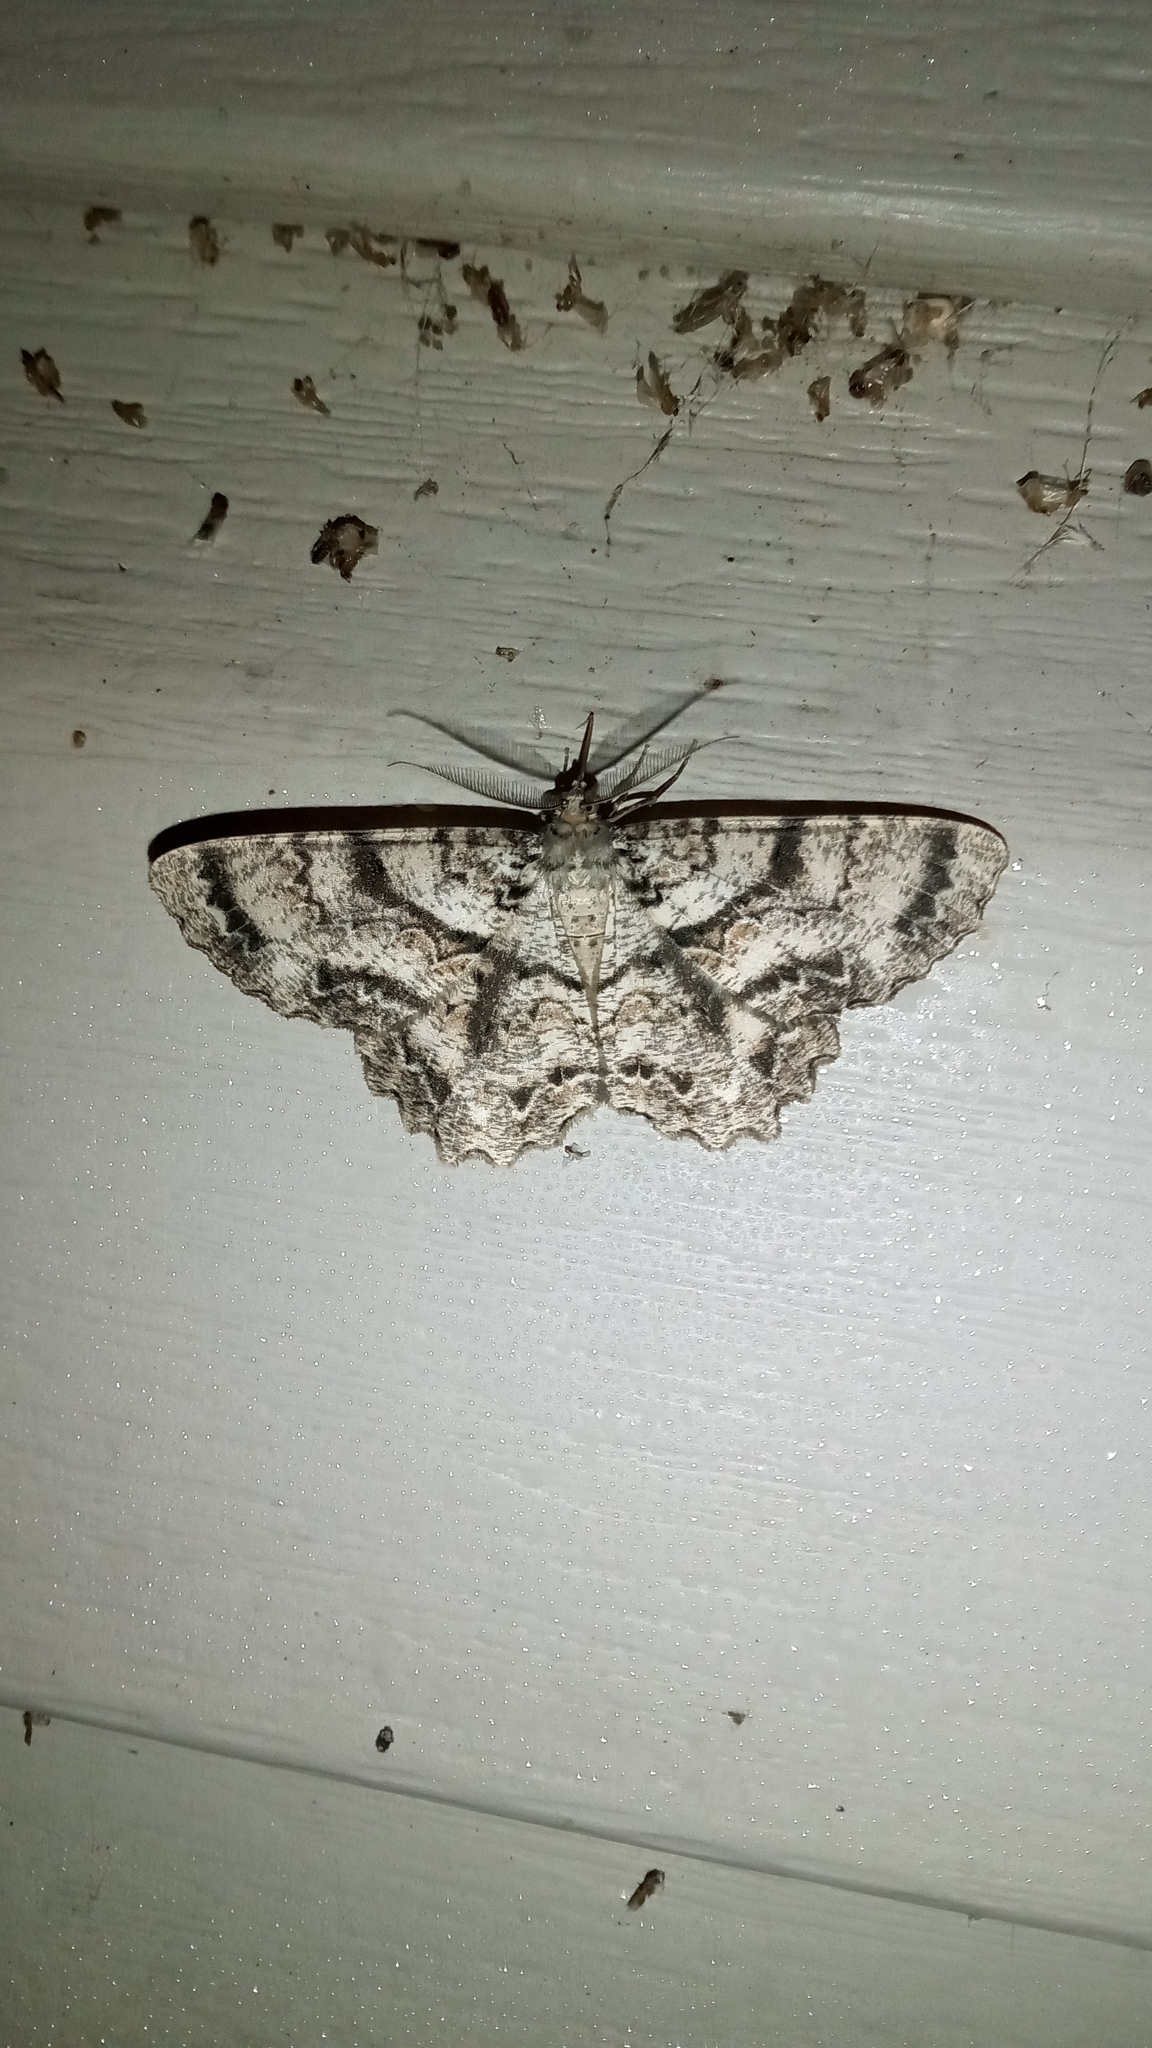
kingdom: Animalia
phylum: Arthropoda
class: Insecta
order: Lepidoptera
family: Geometridae
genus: Epimecis
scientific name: Epimecis hortaria
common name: Tulip-tree beauty
